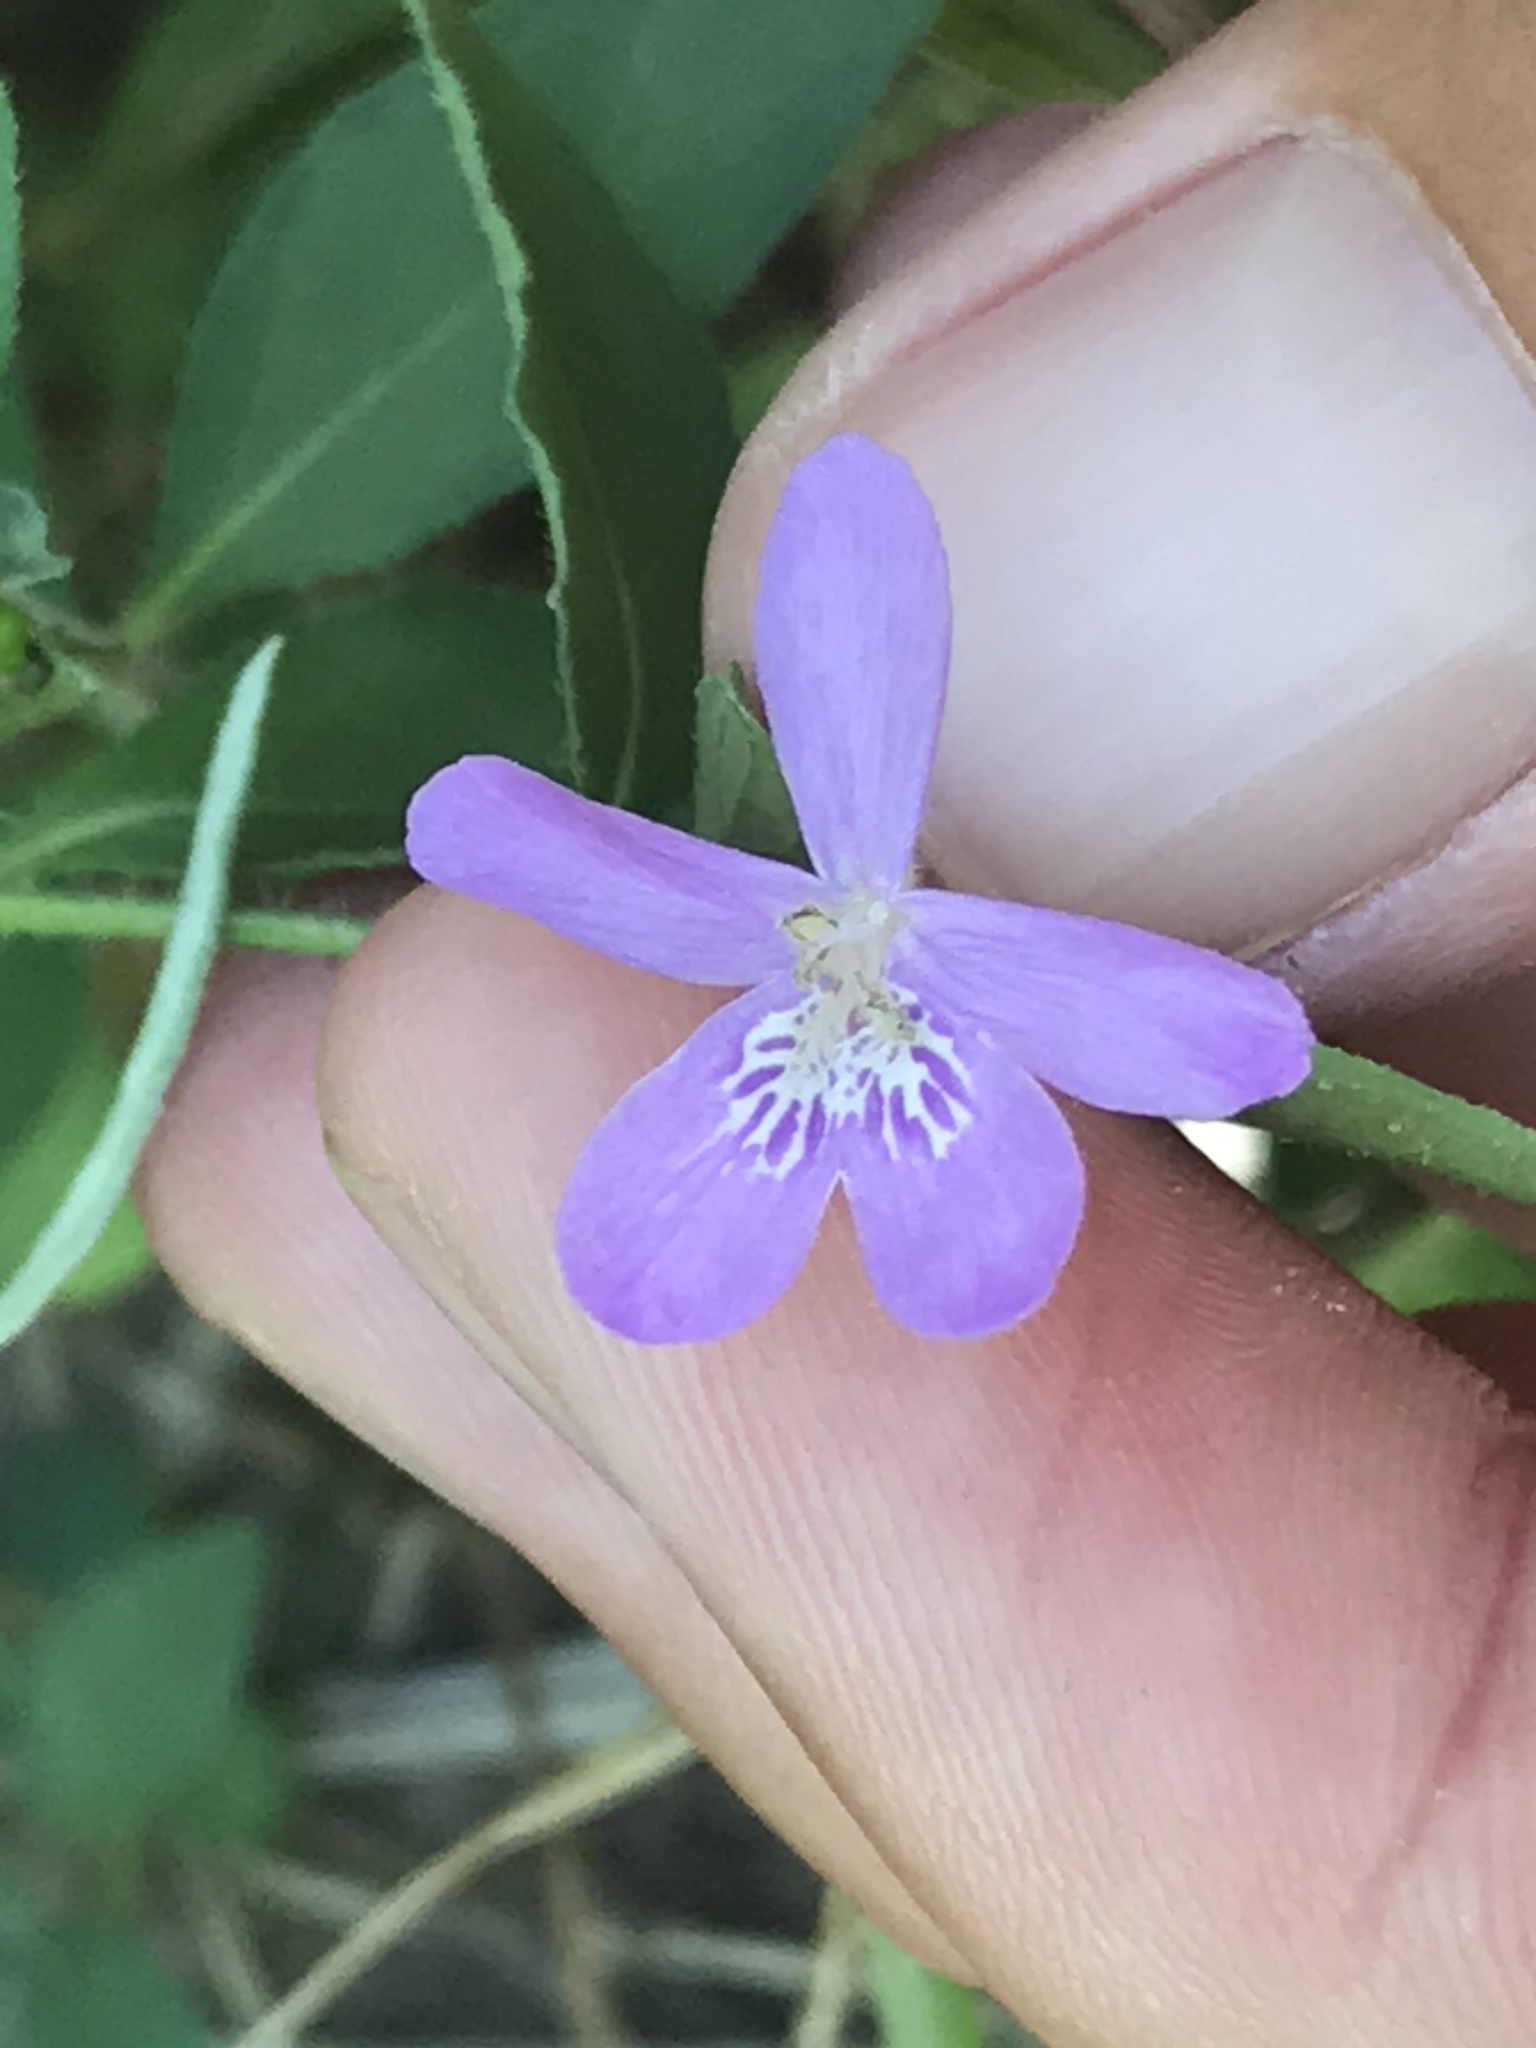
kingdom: Plantae
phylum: Tracheophyta
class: Magnoliopsida
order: Lamiales
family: Acanthaceae
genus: Justicia
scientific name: Justicia pilosella
